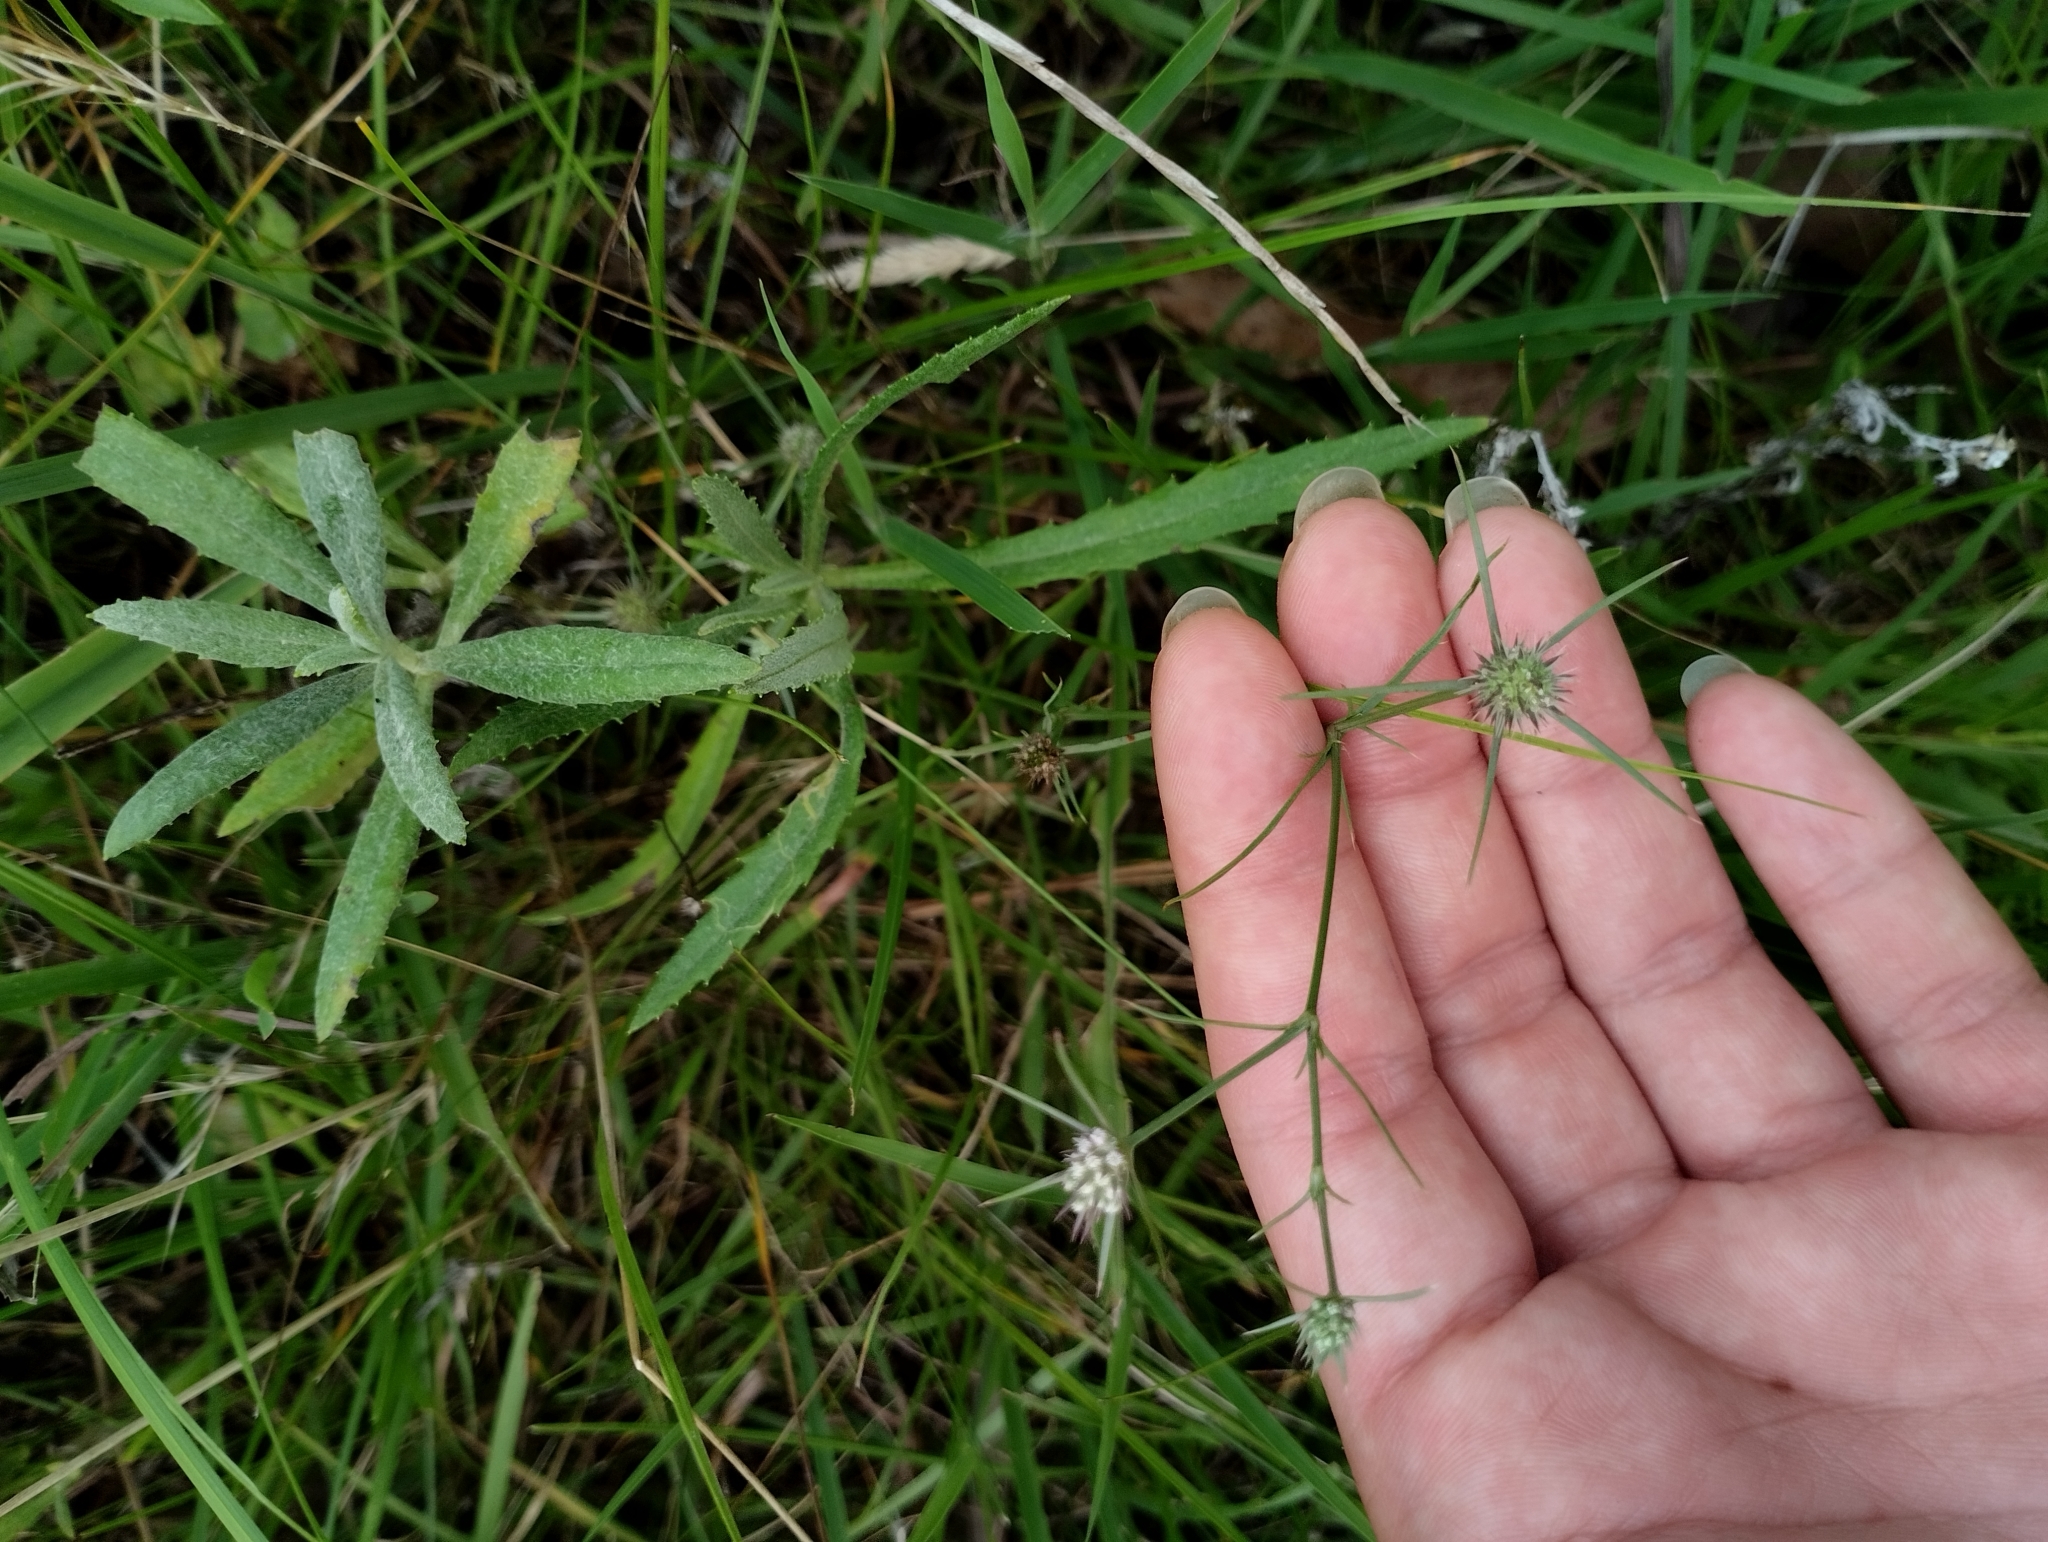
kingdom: Plantae
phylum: Tracheophyta
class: Magnoliopsida
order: Apiales
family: Apiaceae
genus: Eryngium
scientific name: Eryngium echinatum
